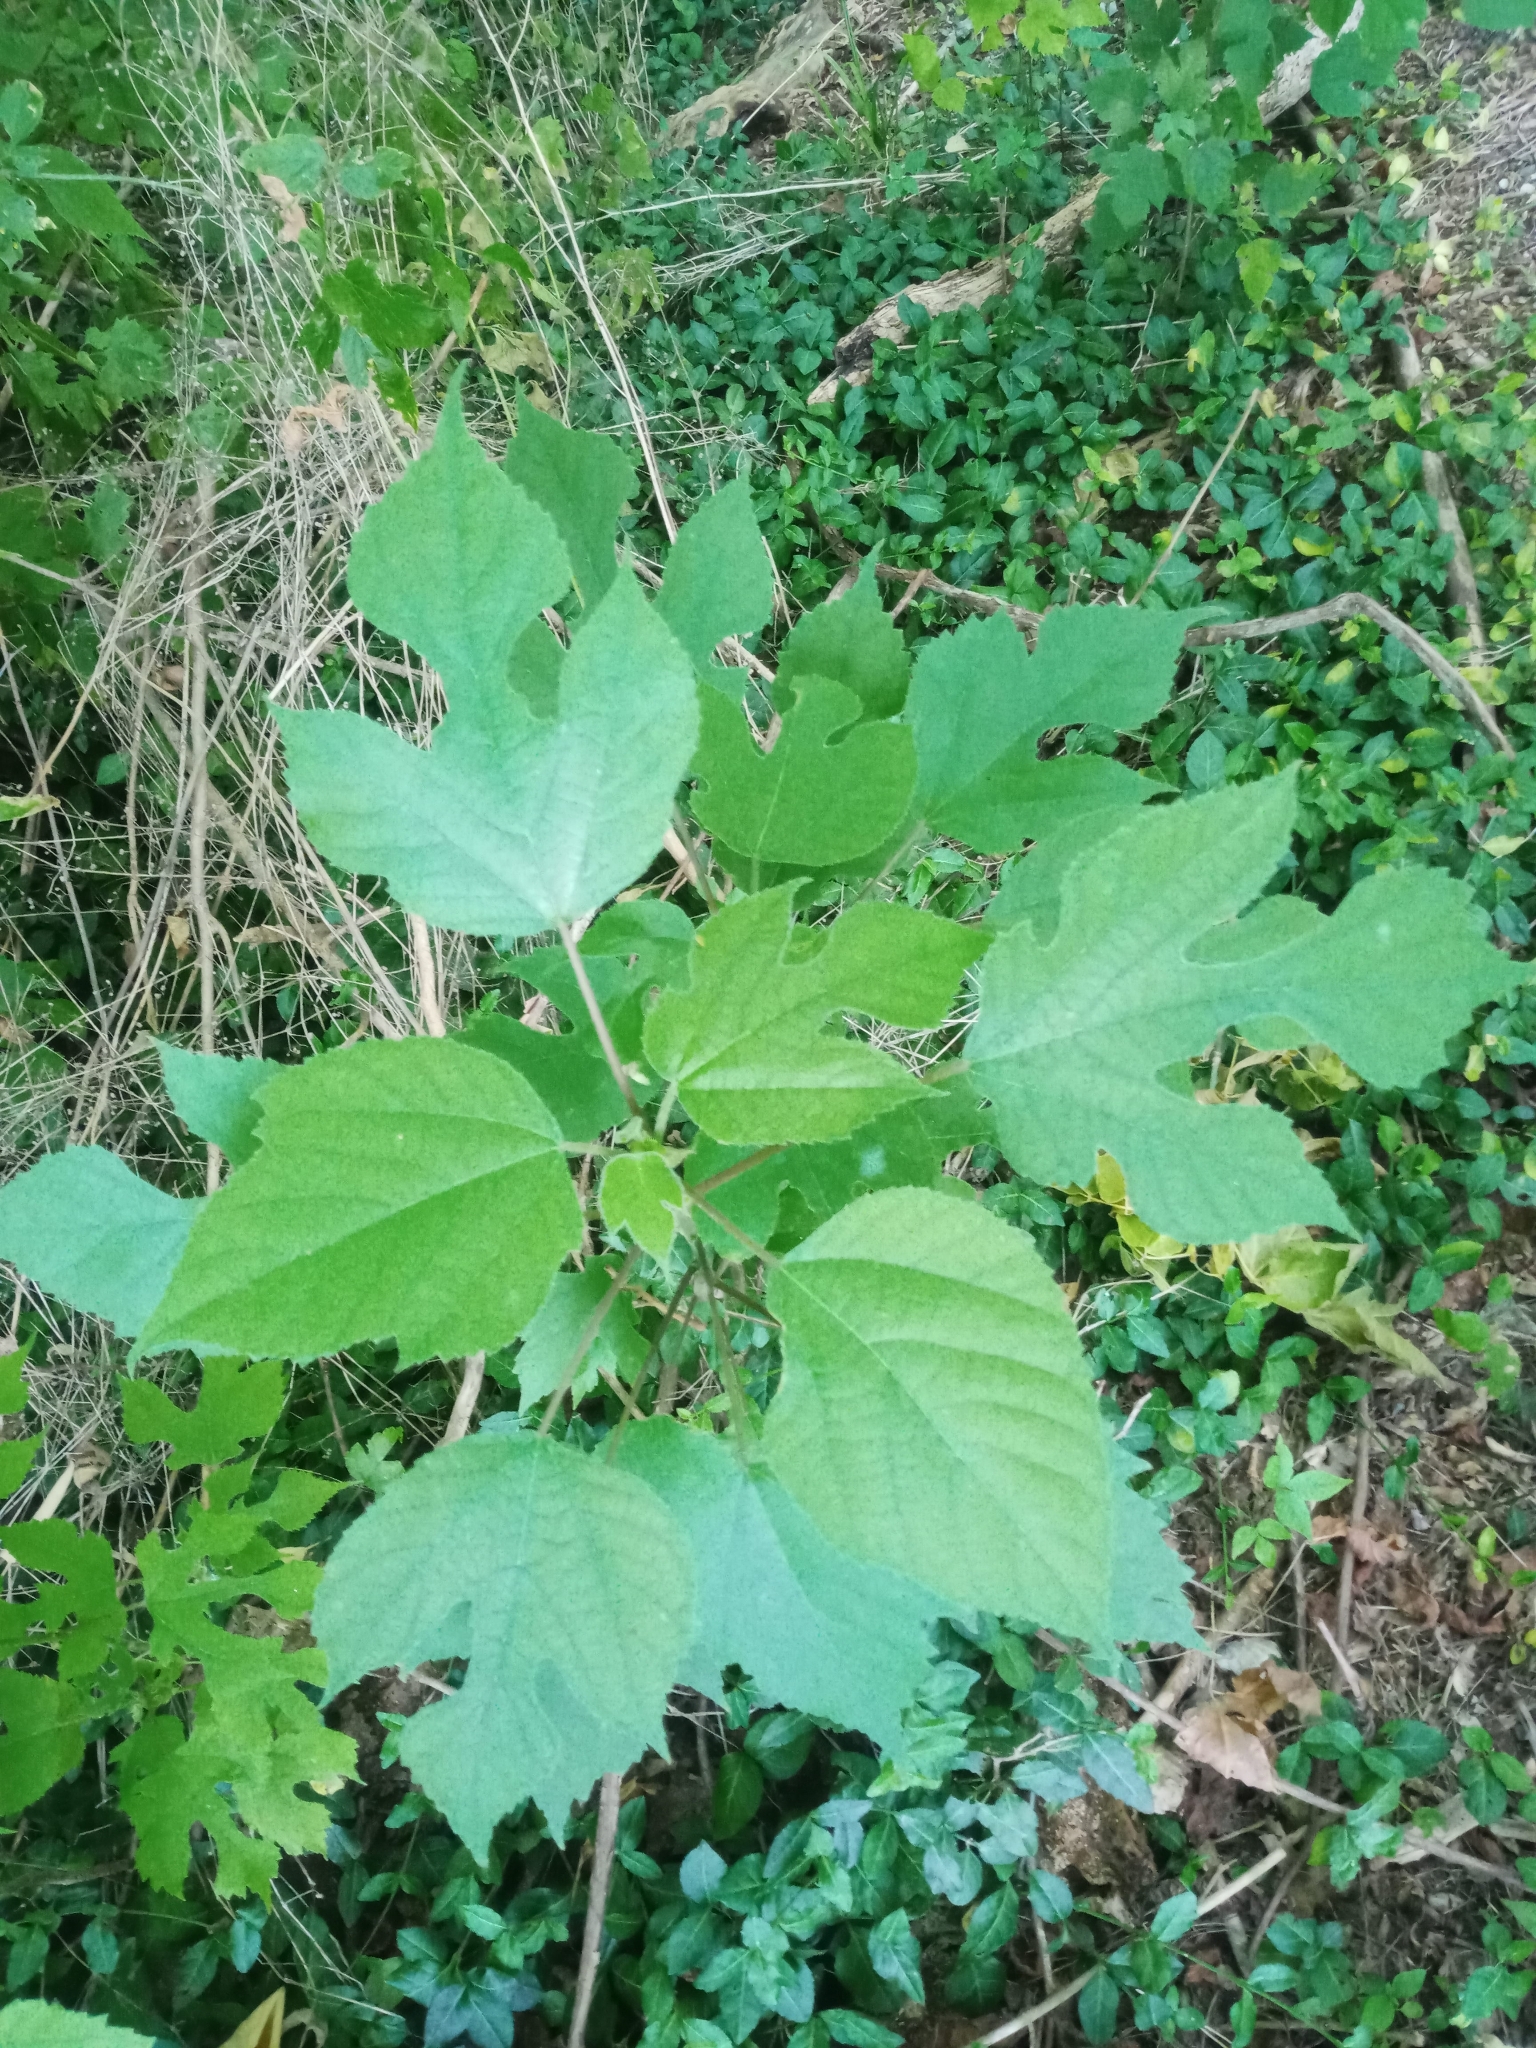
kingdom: Plantae
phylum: Tracheophyta
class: Magnoliopsida
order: Rosales
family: Moraceae
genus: Broussonetia
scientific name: Broussonetia papyrifera
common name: Paper mulberry
